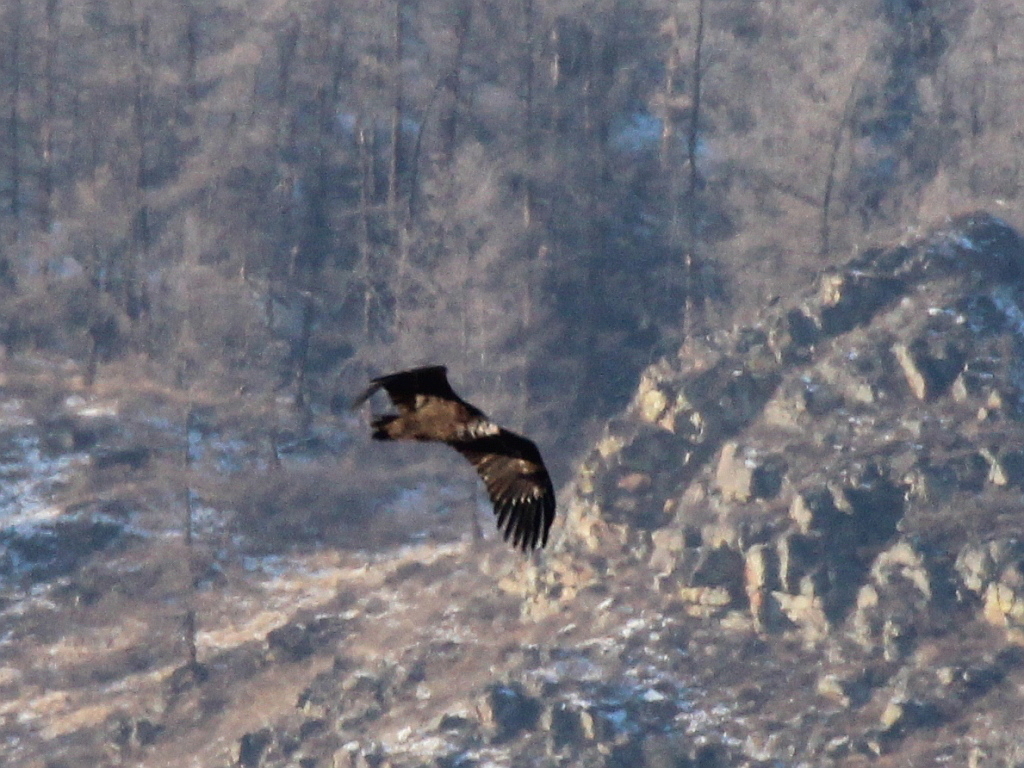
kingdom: Animalia
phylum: Chordata
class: Aves
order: Accipitriformes
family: Accipitridae
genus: Aegypius
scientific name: Aegypius monachus
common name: Cinereous vulture
